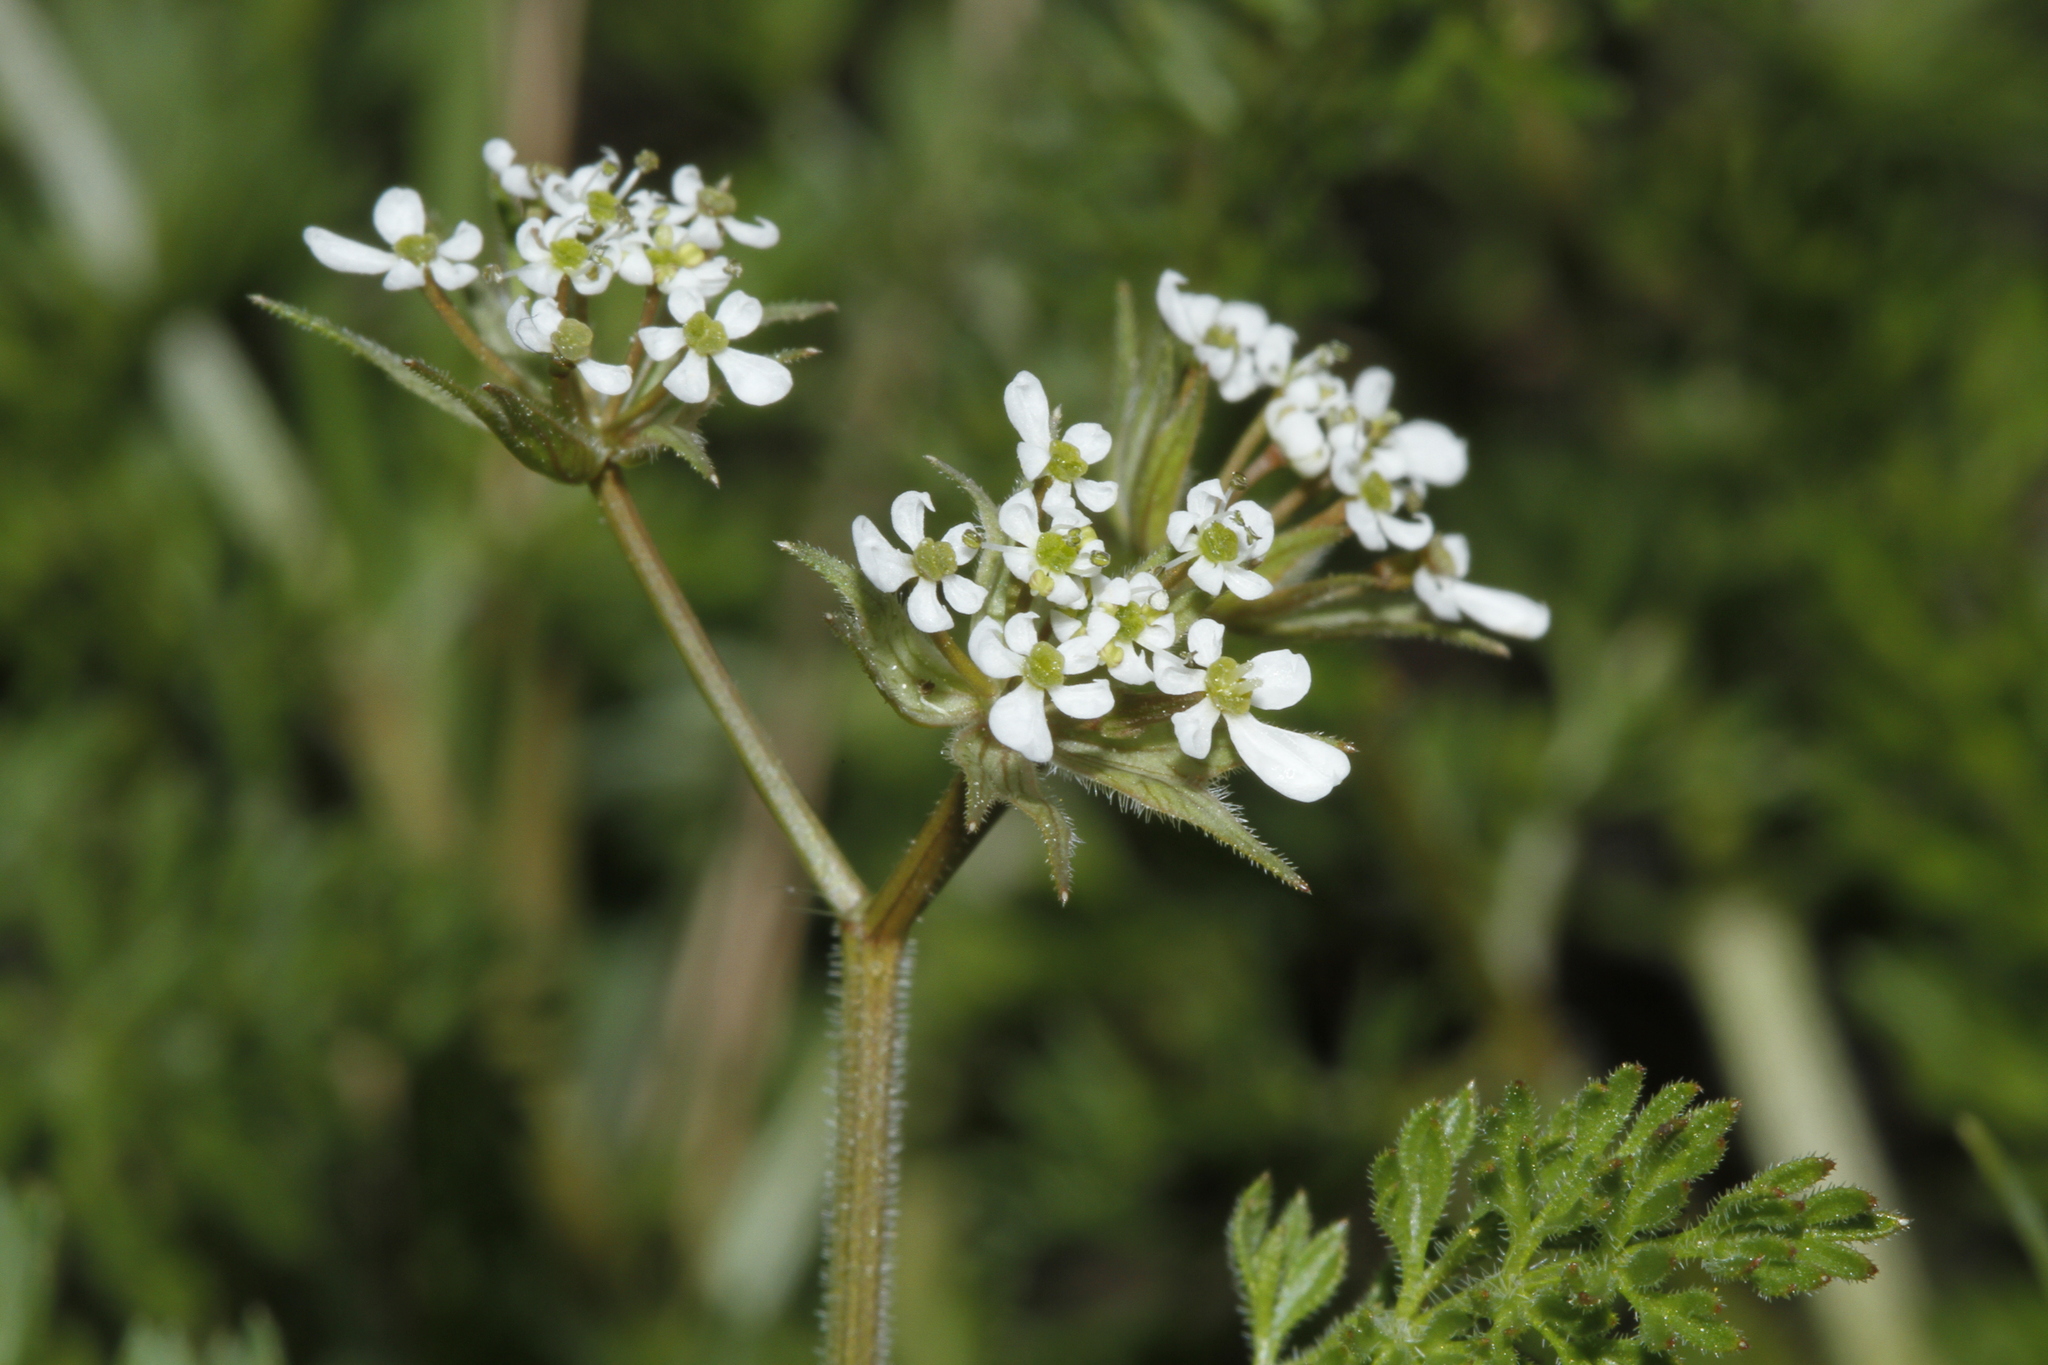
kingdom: Plantae
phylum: Tracheophyta
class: Magnoliopsida
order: Apiales
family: Apiaceae
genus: Scandix
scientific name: Scandix pecten-veneris
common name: Shepherd's-needle
